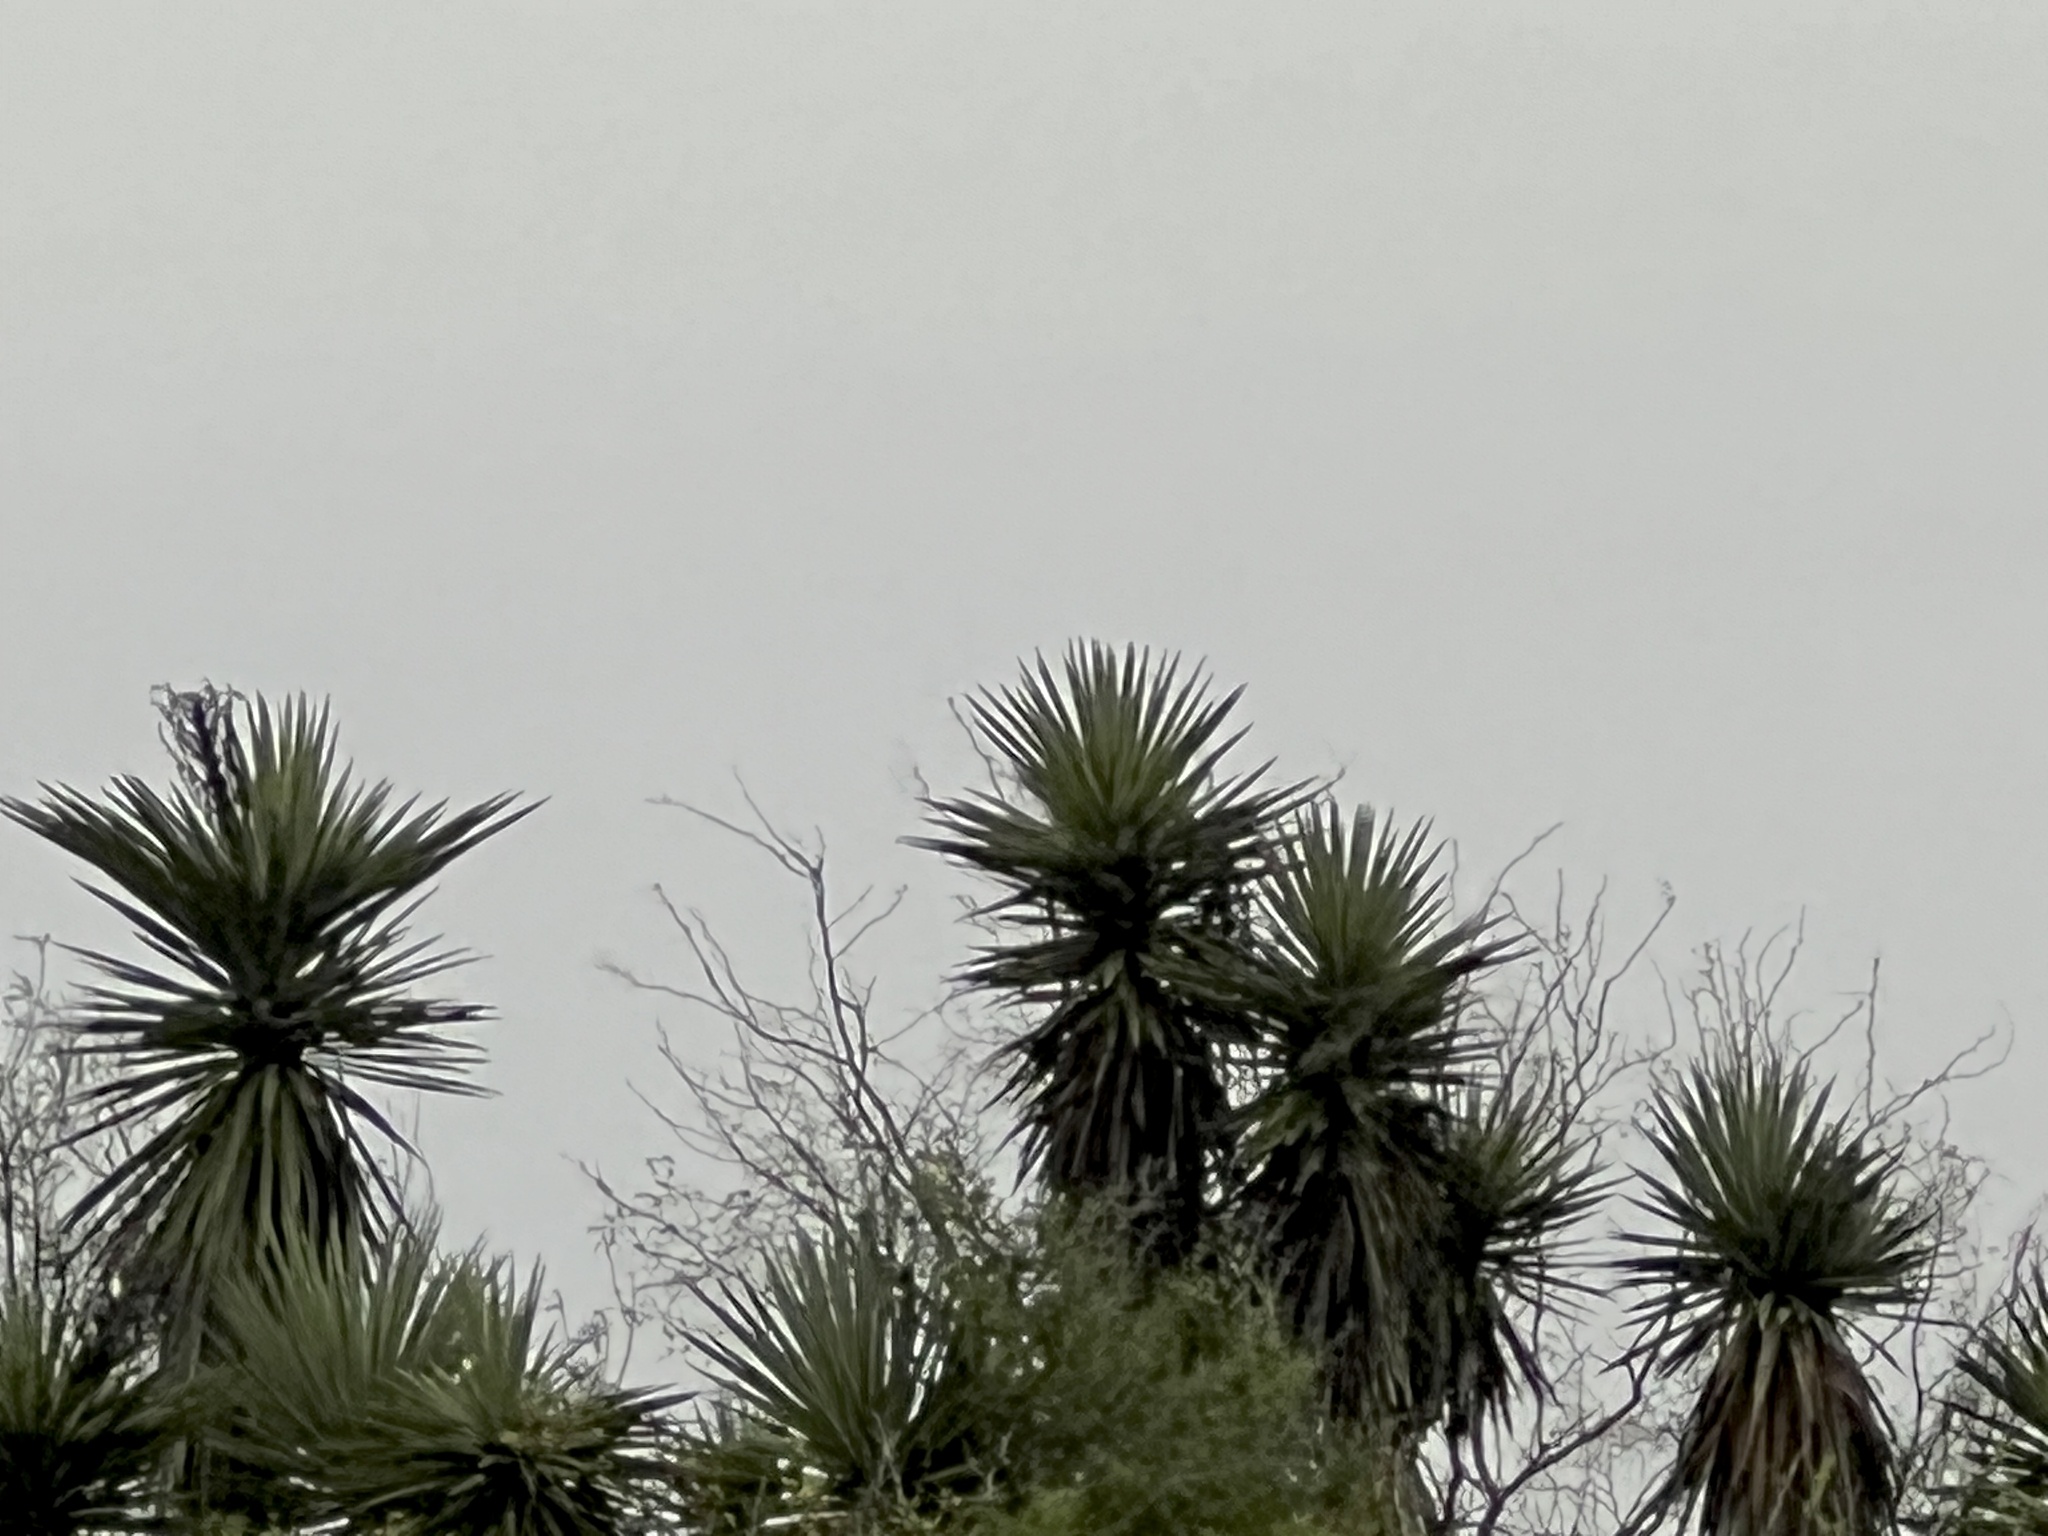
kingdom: Plantae
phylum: Tracheophyta
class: Liliopsida
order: Asparagales
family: Asparagaceae
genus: Yucca
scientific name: Yucca treculiana
